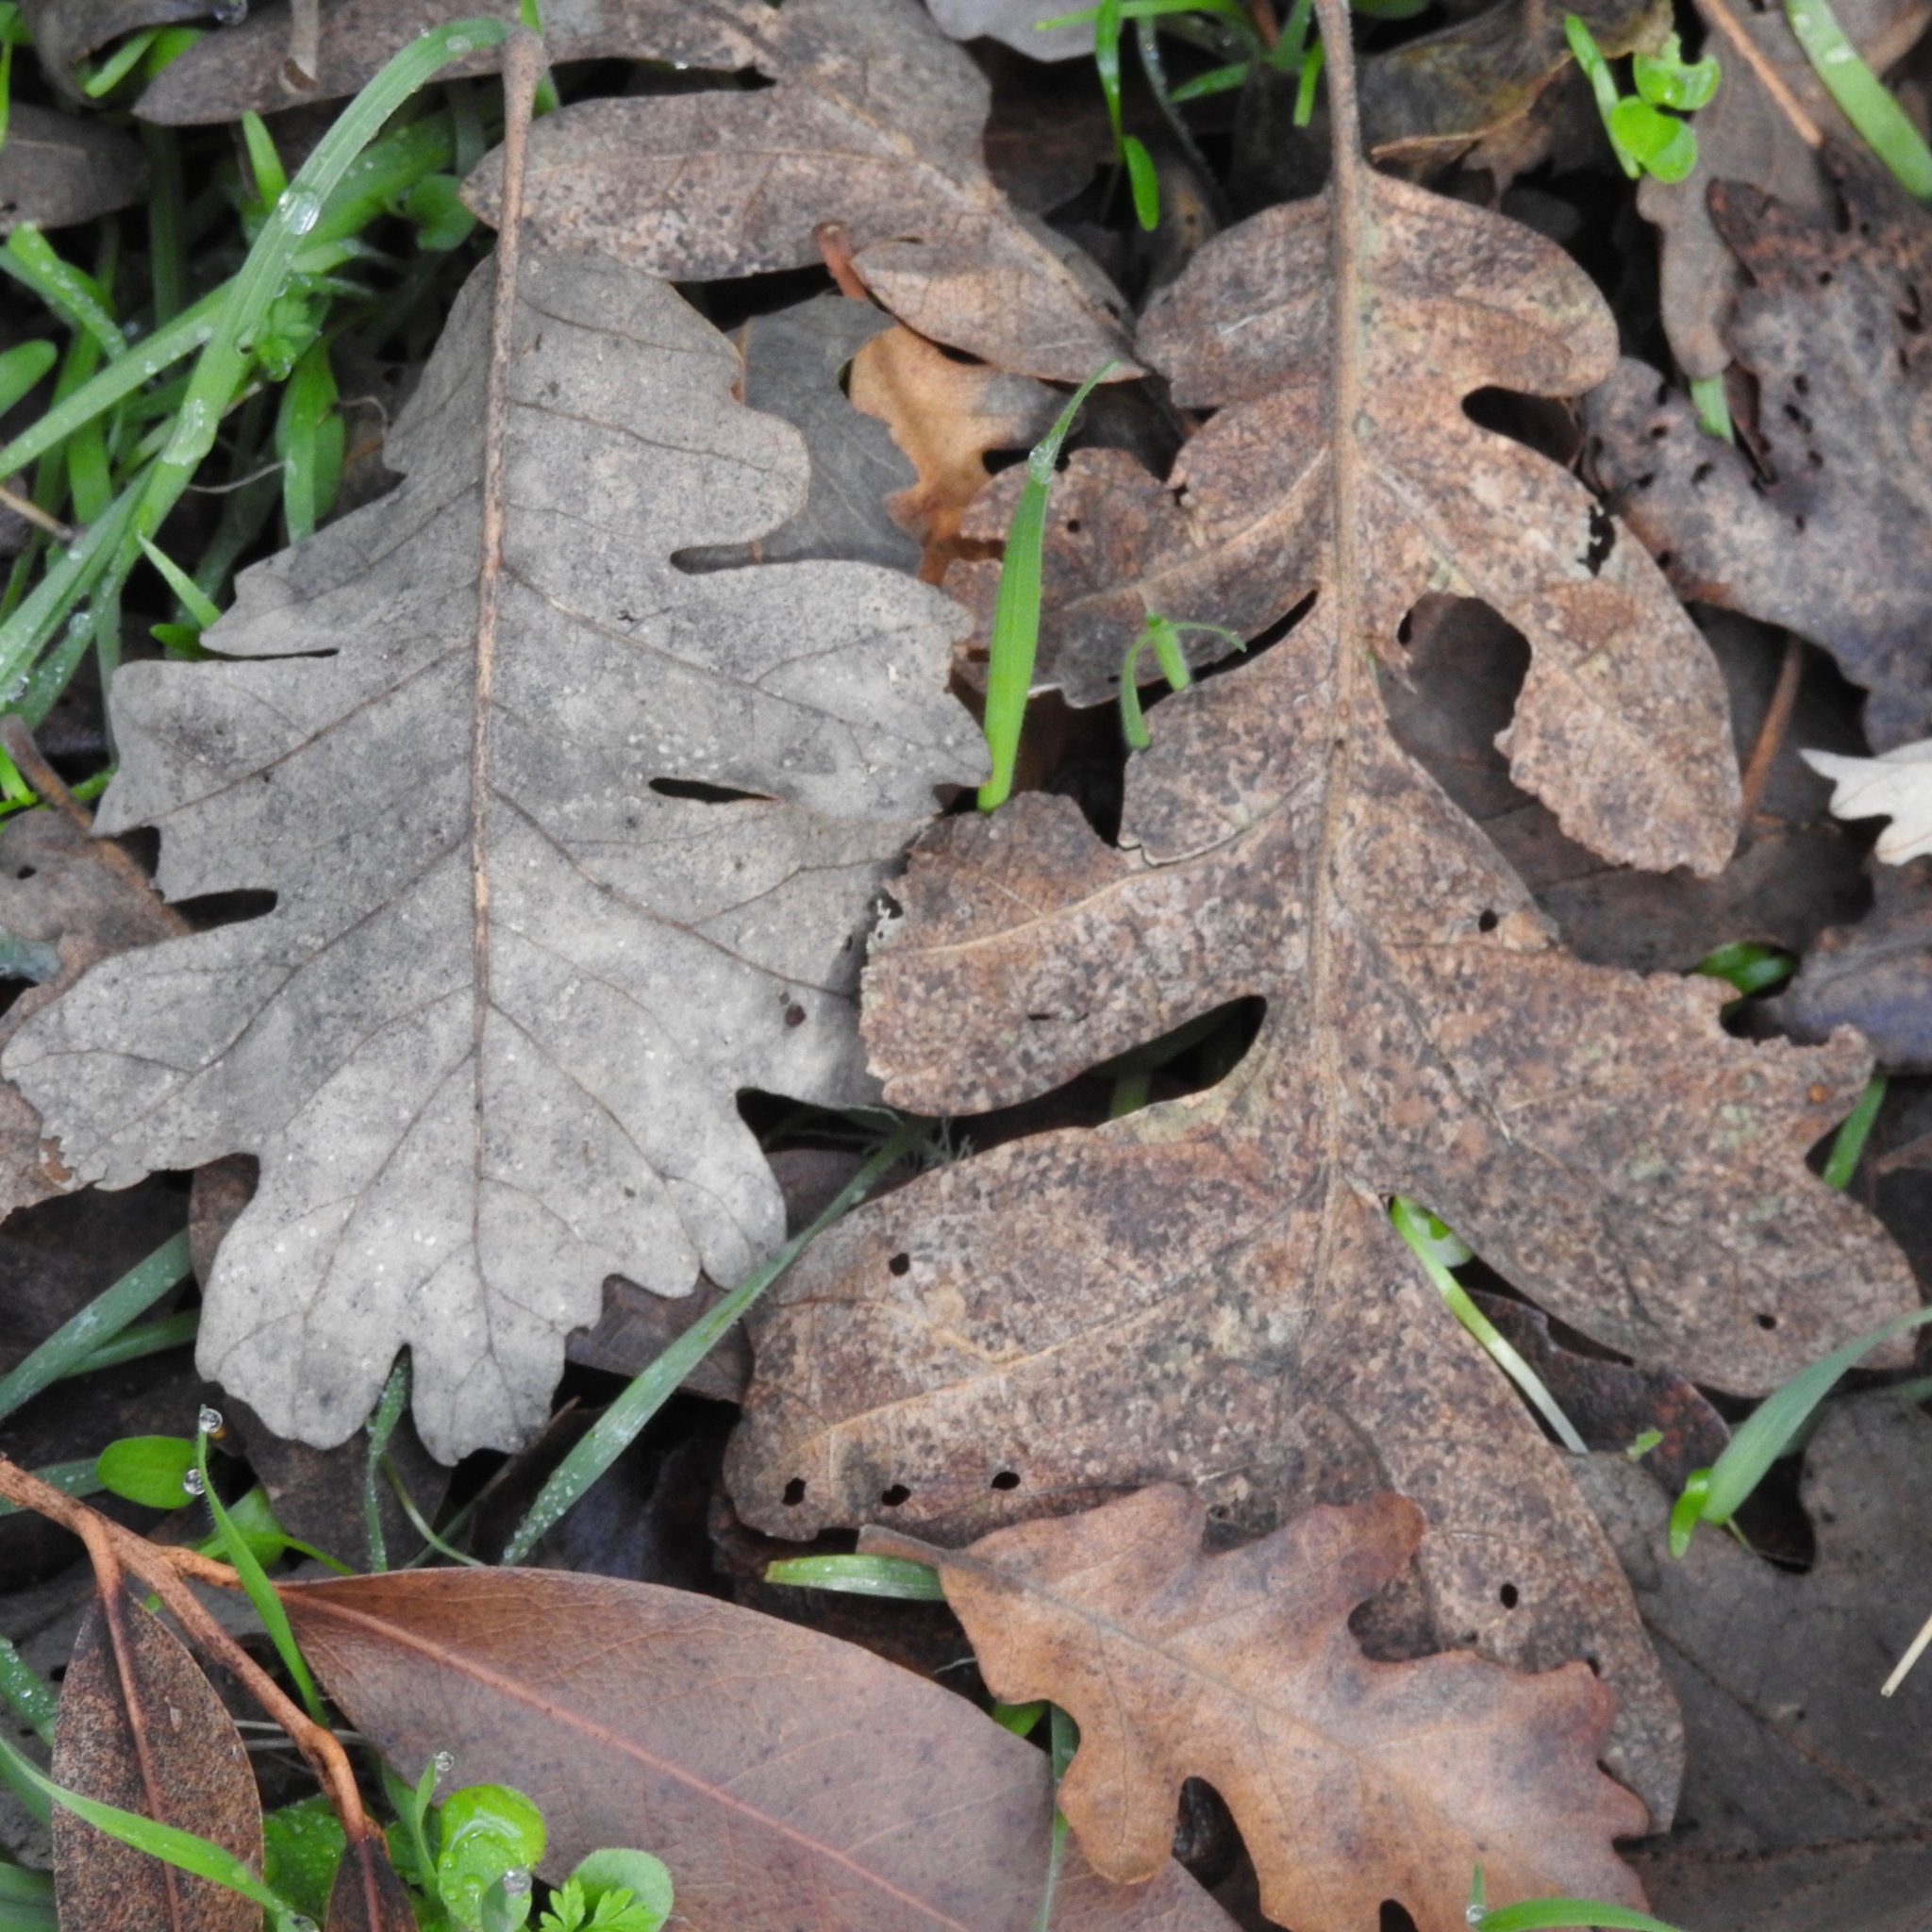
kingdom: Plantae
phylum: Tracheophyta
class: Magnoliopsida
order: Fagales
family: Fagaceae
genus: Quercus
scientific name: Quercus lobata
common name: Valley oak
